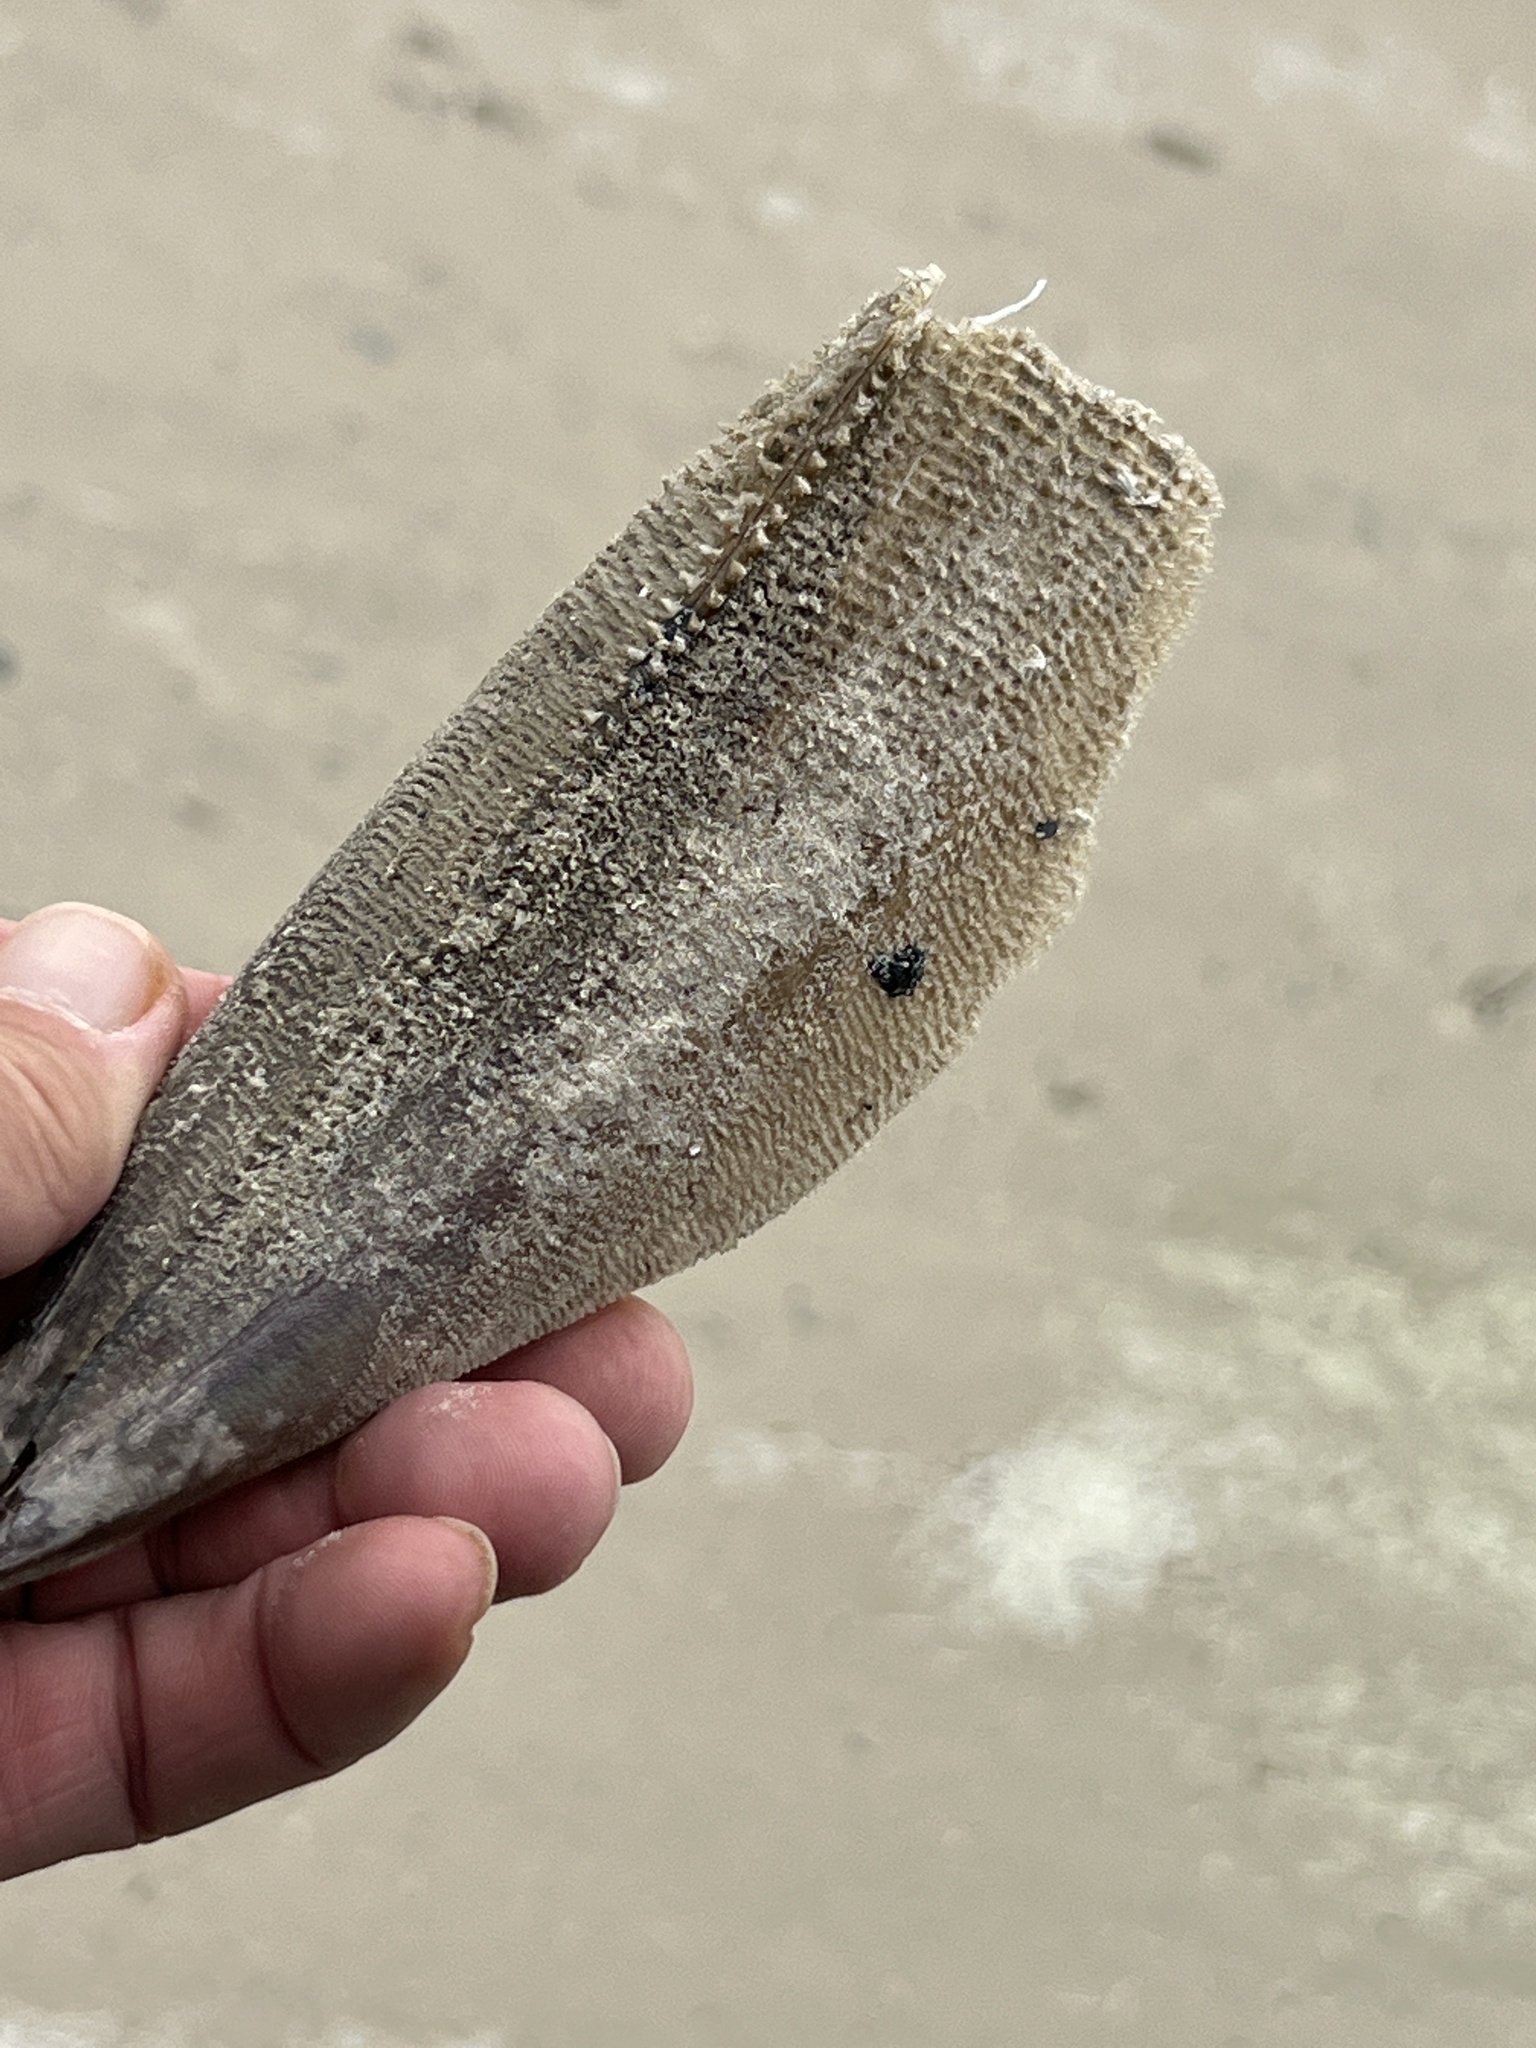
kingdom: Animalia
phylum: Mollusca
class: Bivalvia
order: Ostreida
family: Pinnidae
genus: Atrina
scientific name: Atrina serrata
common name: Saw-toothed penshell
